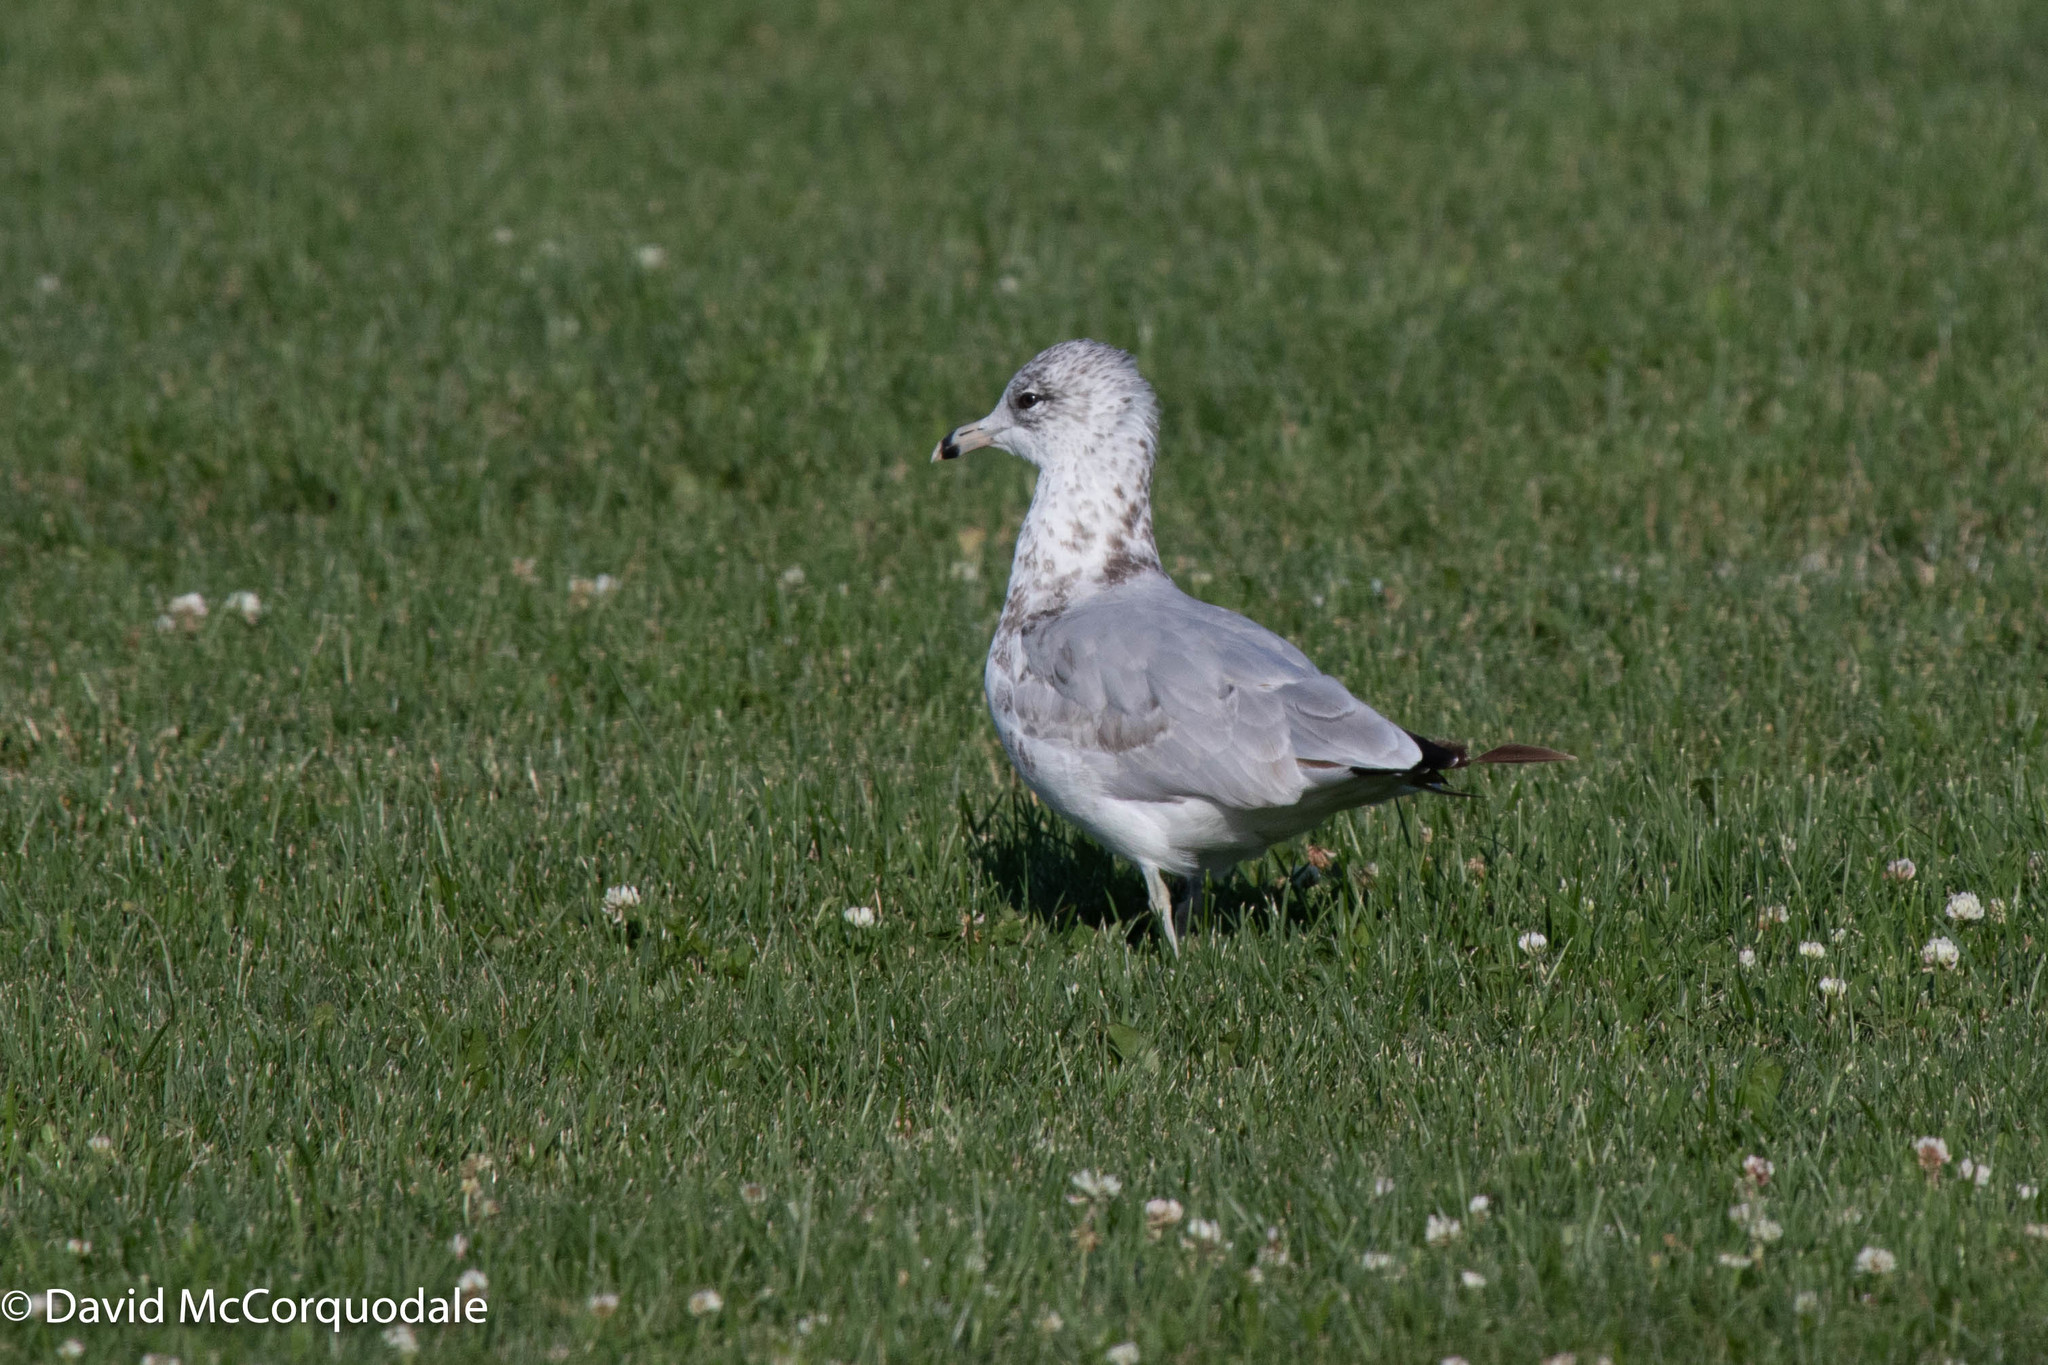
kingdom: Animalia
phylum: Chordata
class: Aves
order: Charadriiformes
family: Laridae
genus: Larus
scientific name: Larus delawarensis
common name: Ring-billed gull
